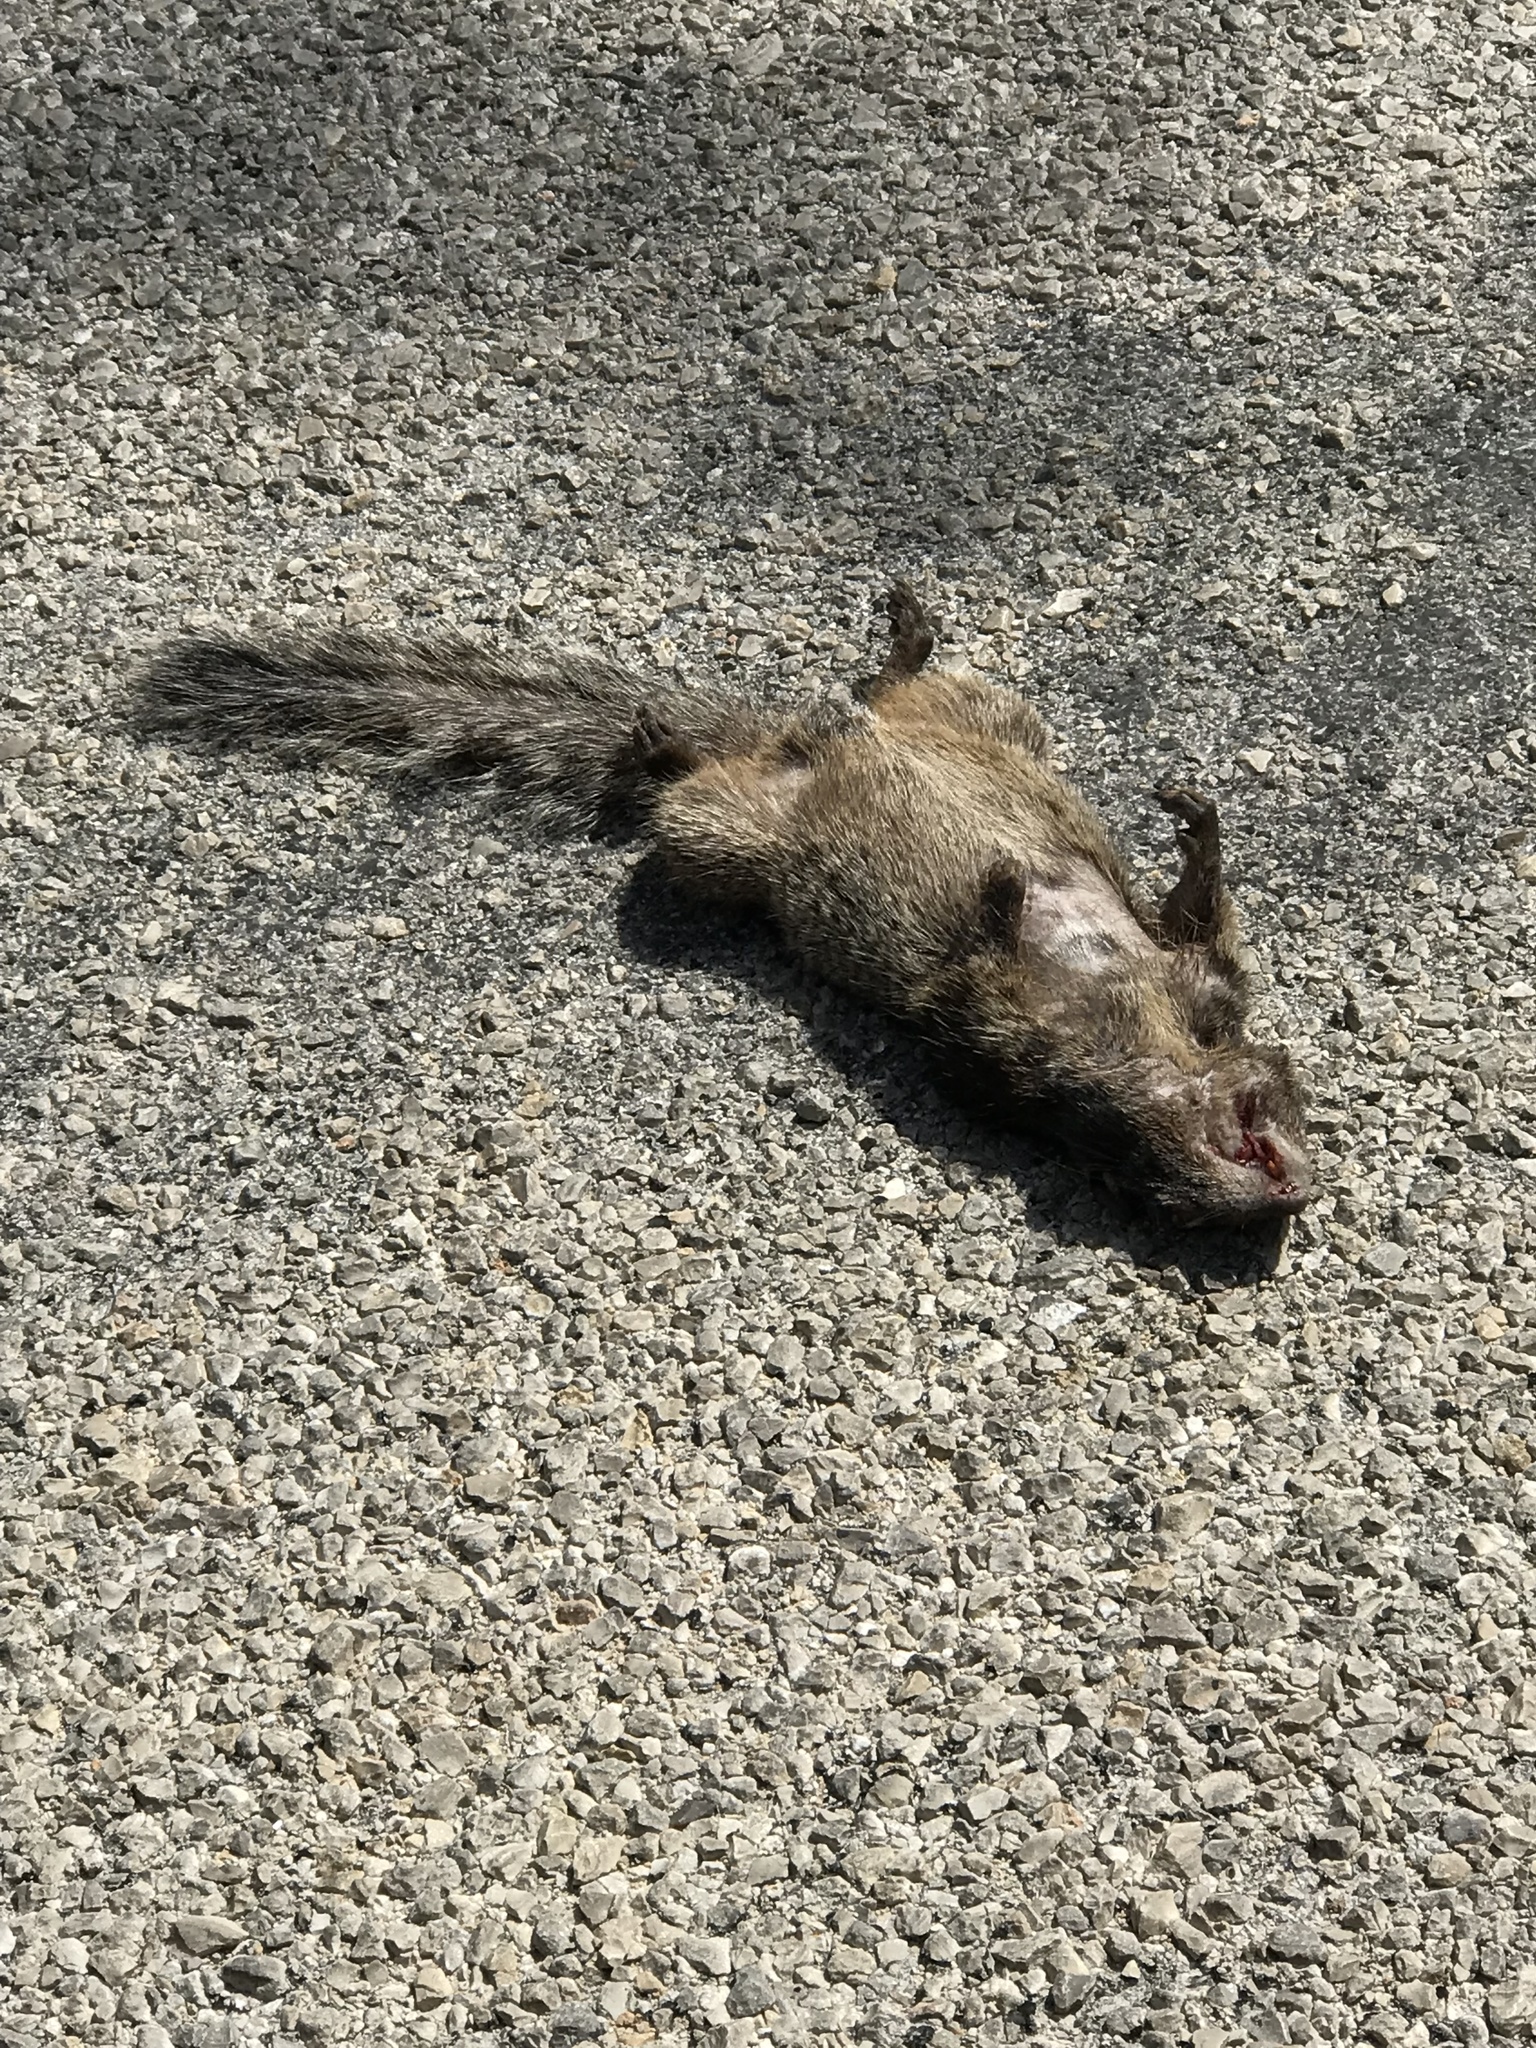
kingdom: Animalia
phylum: Chordata
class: Mammalia
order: Rodentia
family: Sciuridae
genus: Otospermophilus
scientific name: Otospermophilus variegatus
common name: Rock squirrel
